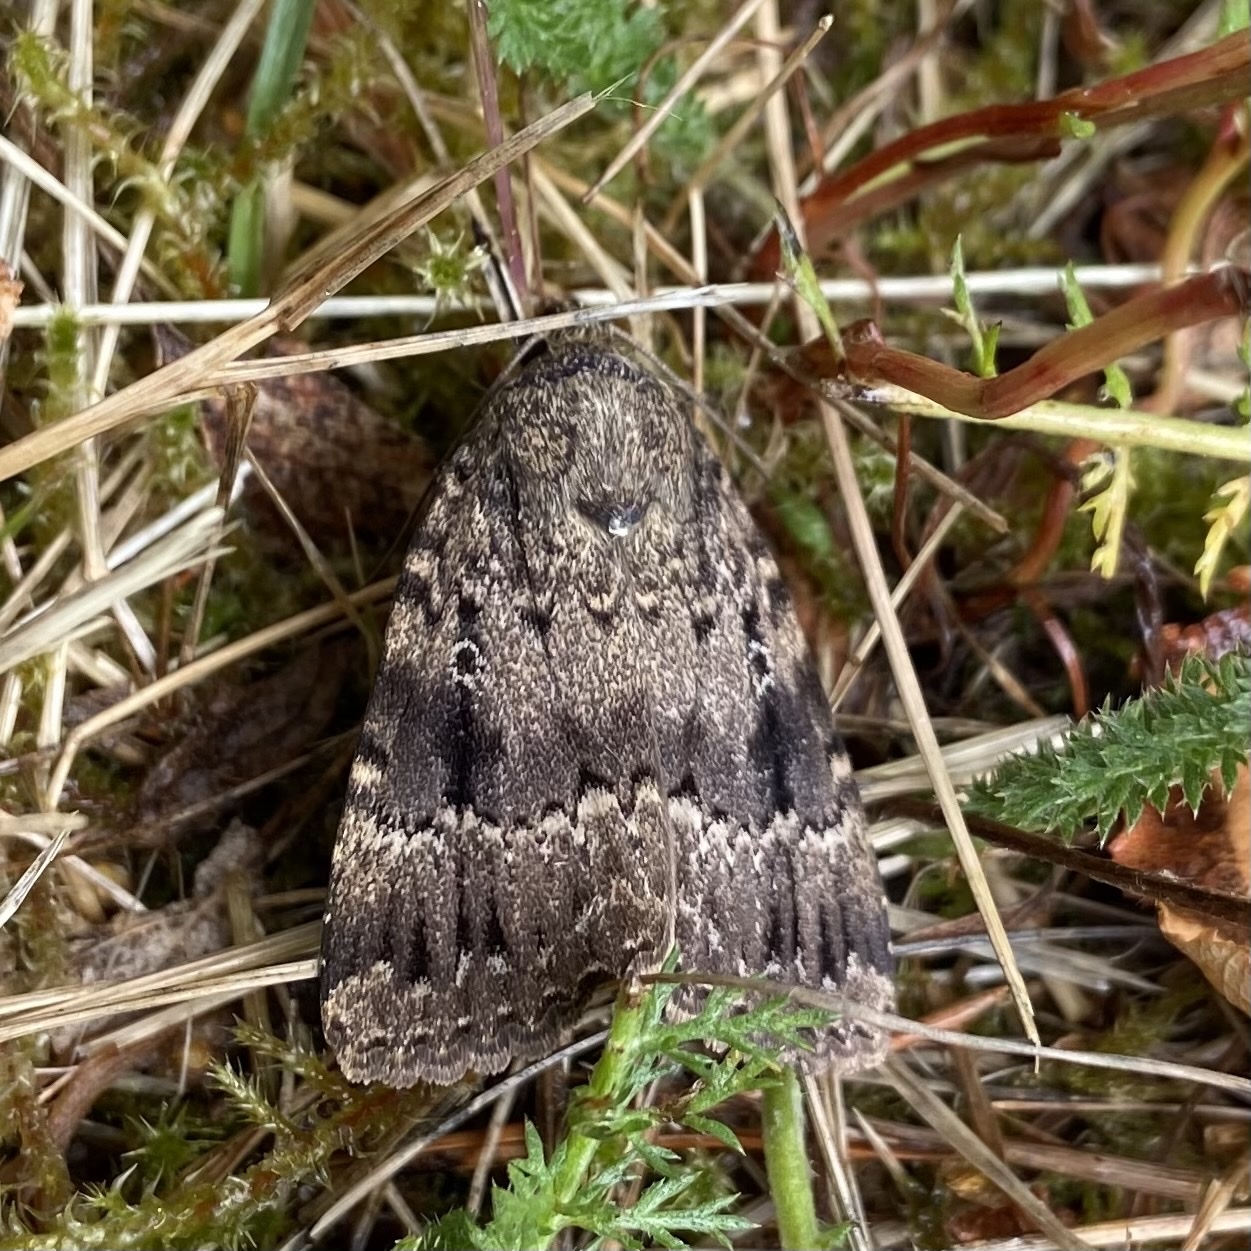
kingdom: Animalia
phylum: Arthropoda
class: Insecta
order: Lepidoptera
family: Noctuidae
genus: Amphipyra
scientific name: Amphipyra pyramidea
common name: Copper underwing
